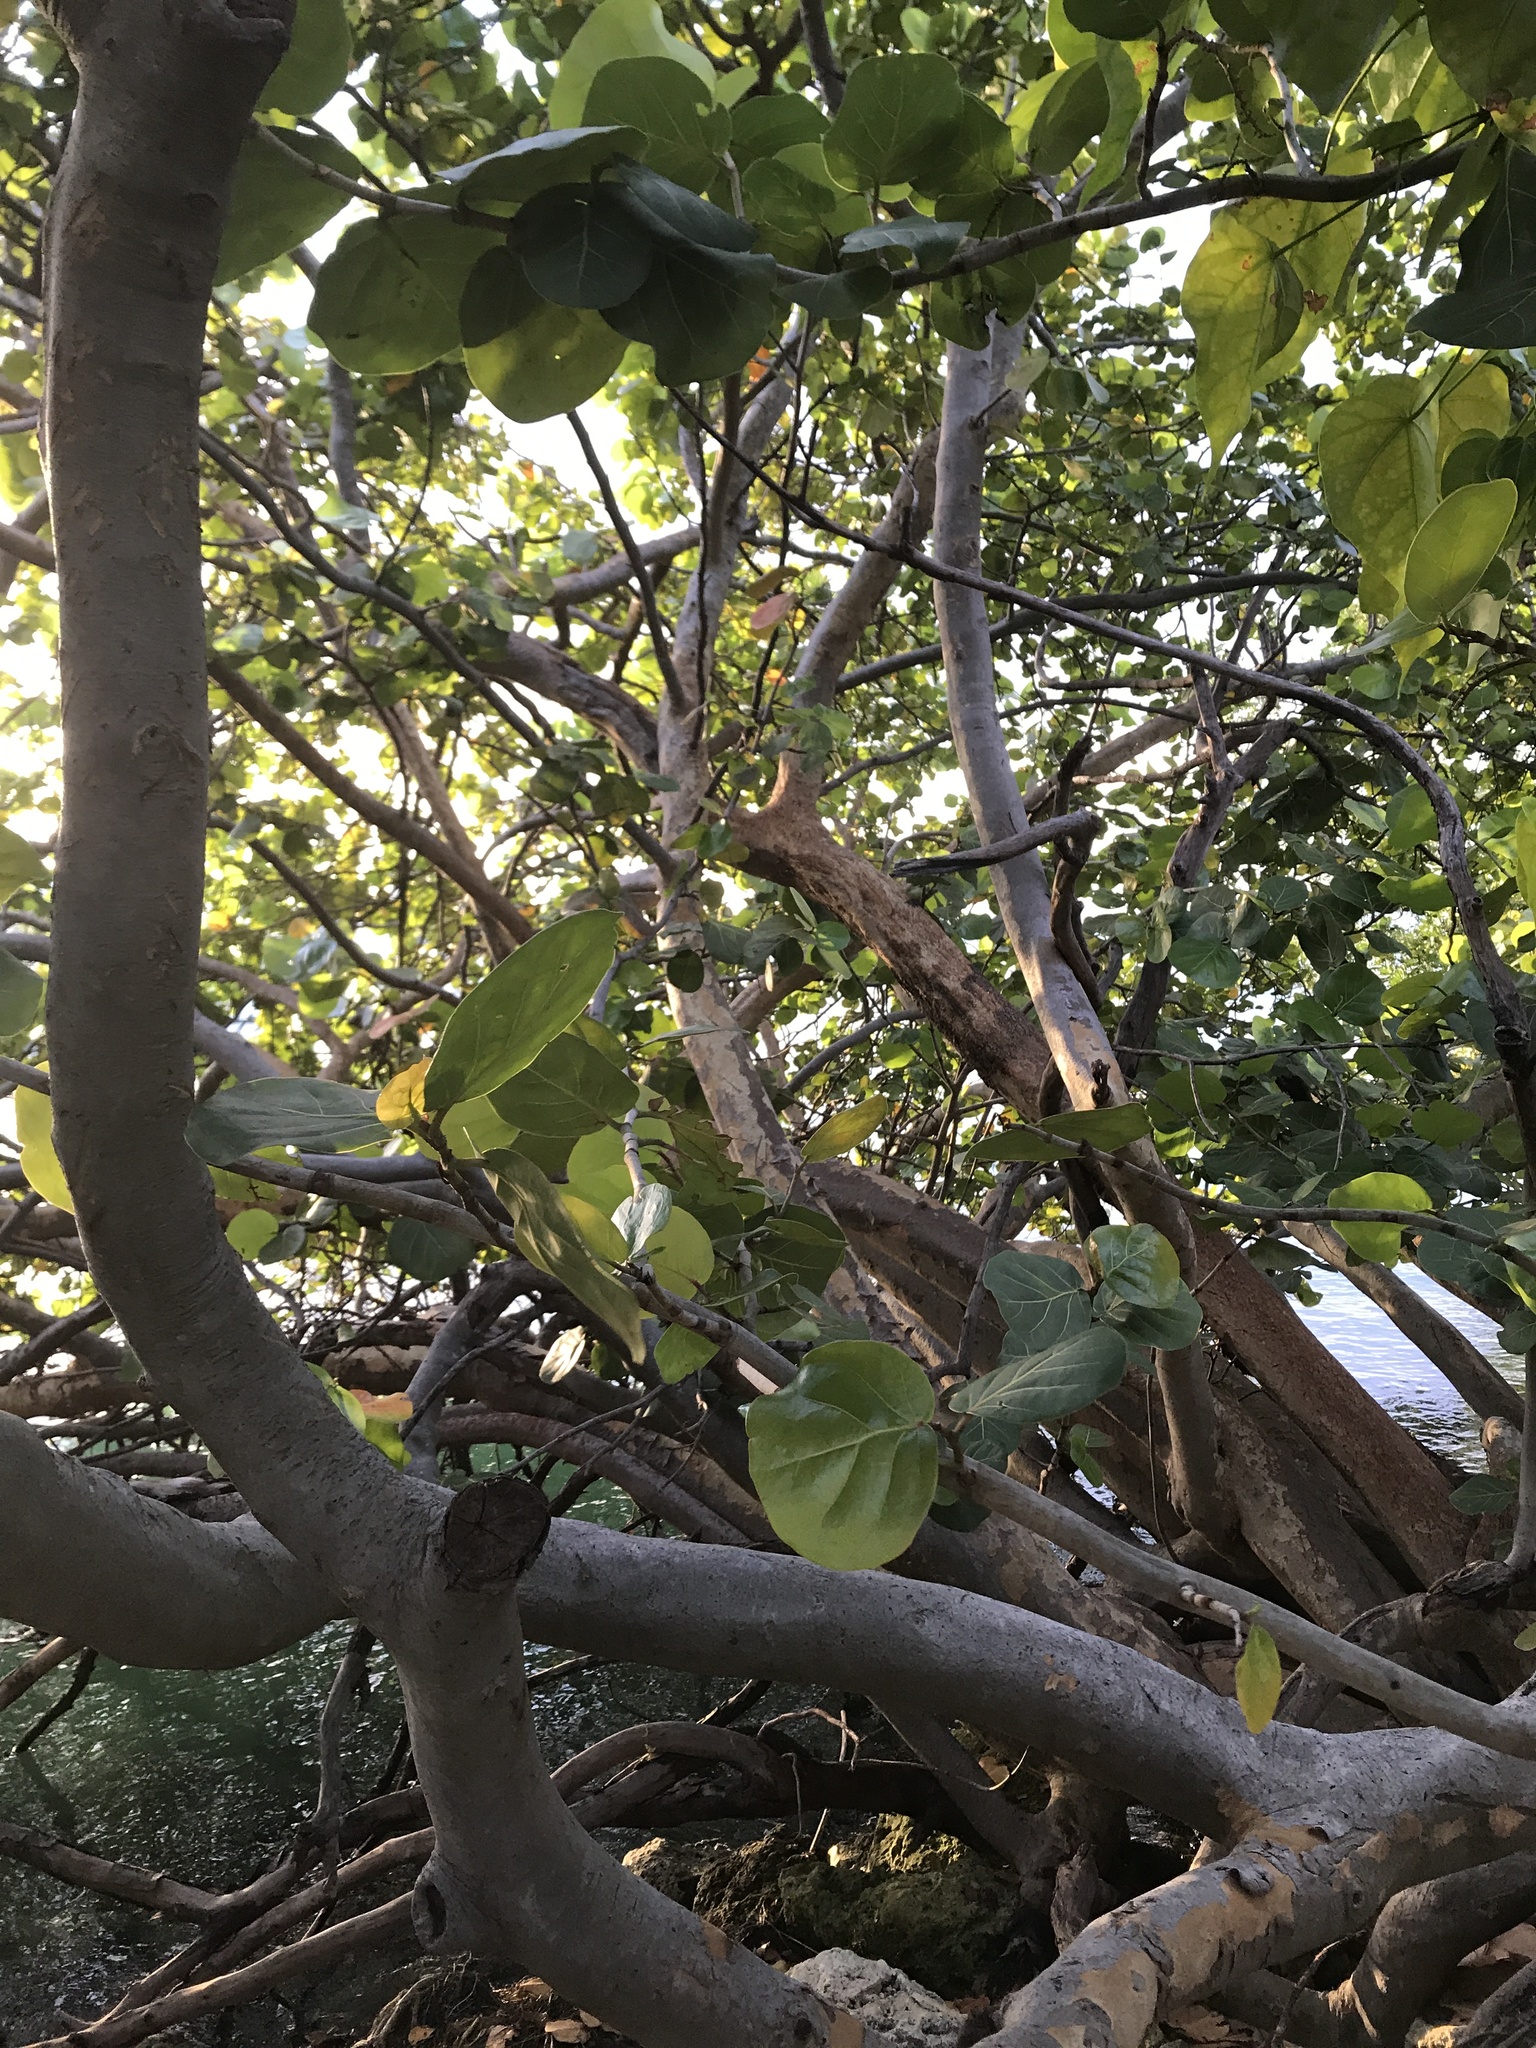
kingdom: Plantae
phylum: Tracheophyta
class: Magnoliopsida
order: Caryophyllales
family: Polygonaceae
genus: Coccoloba
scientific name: Coccoloba uvifera
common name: Seagrape
